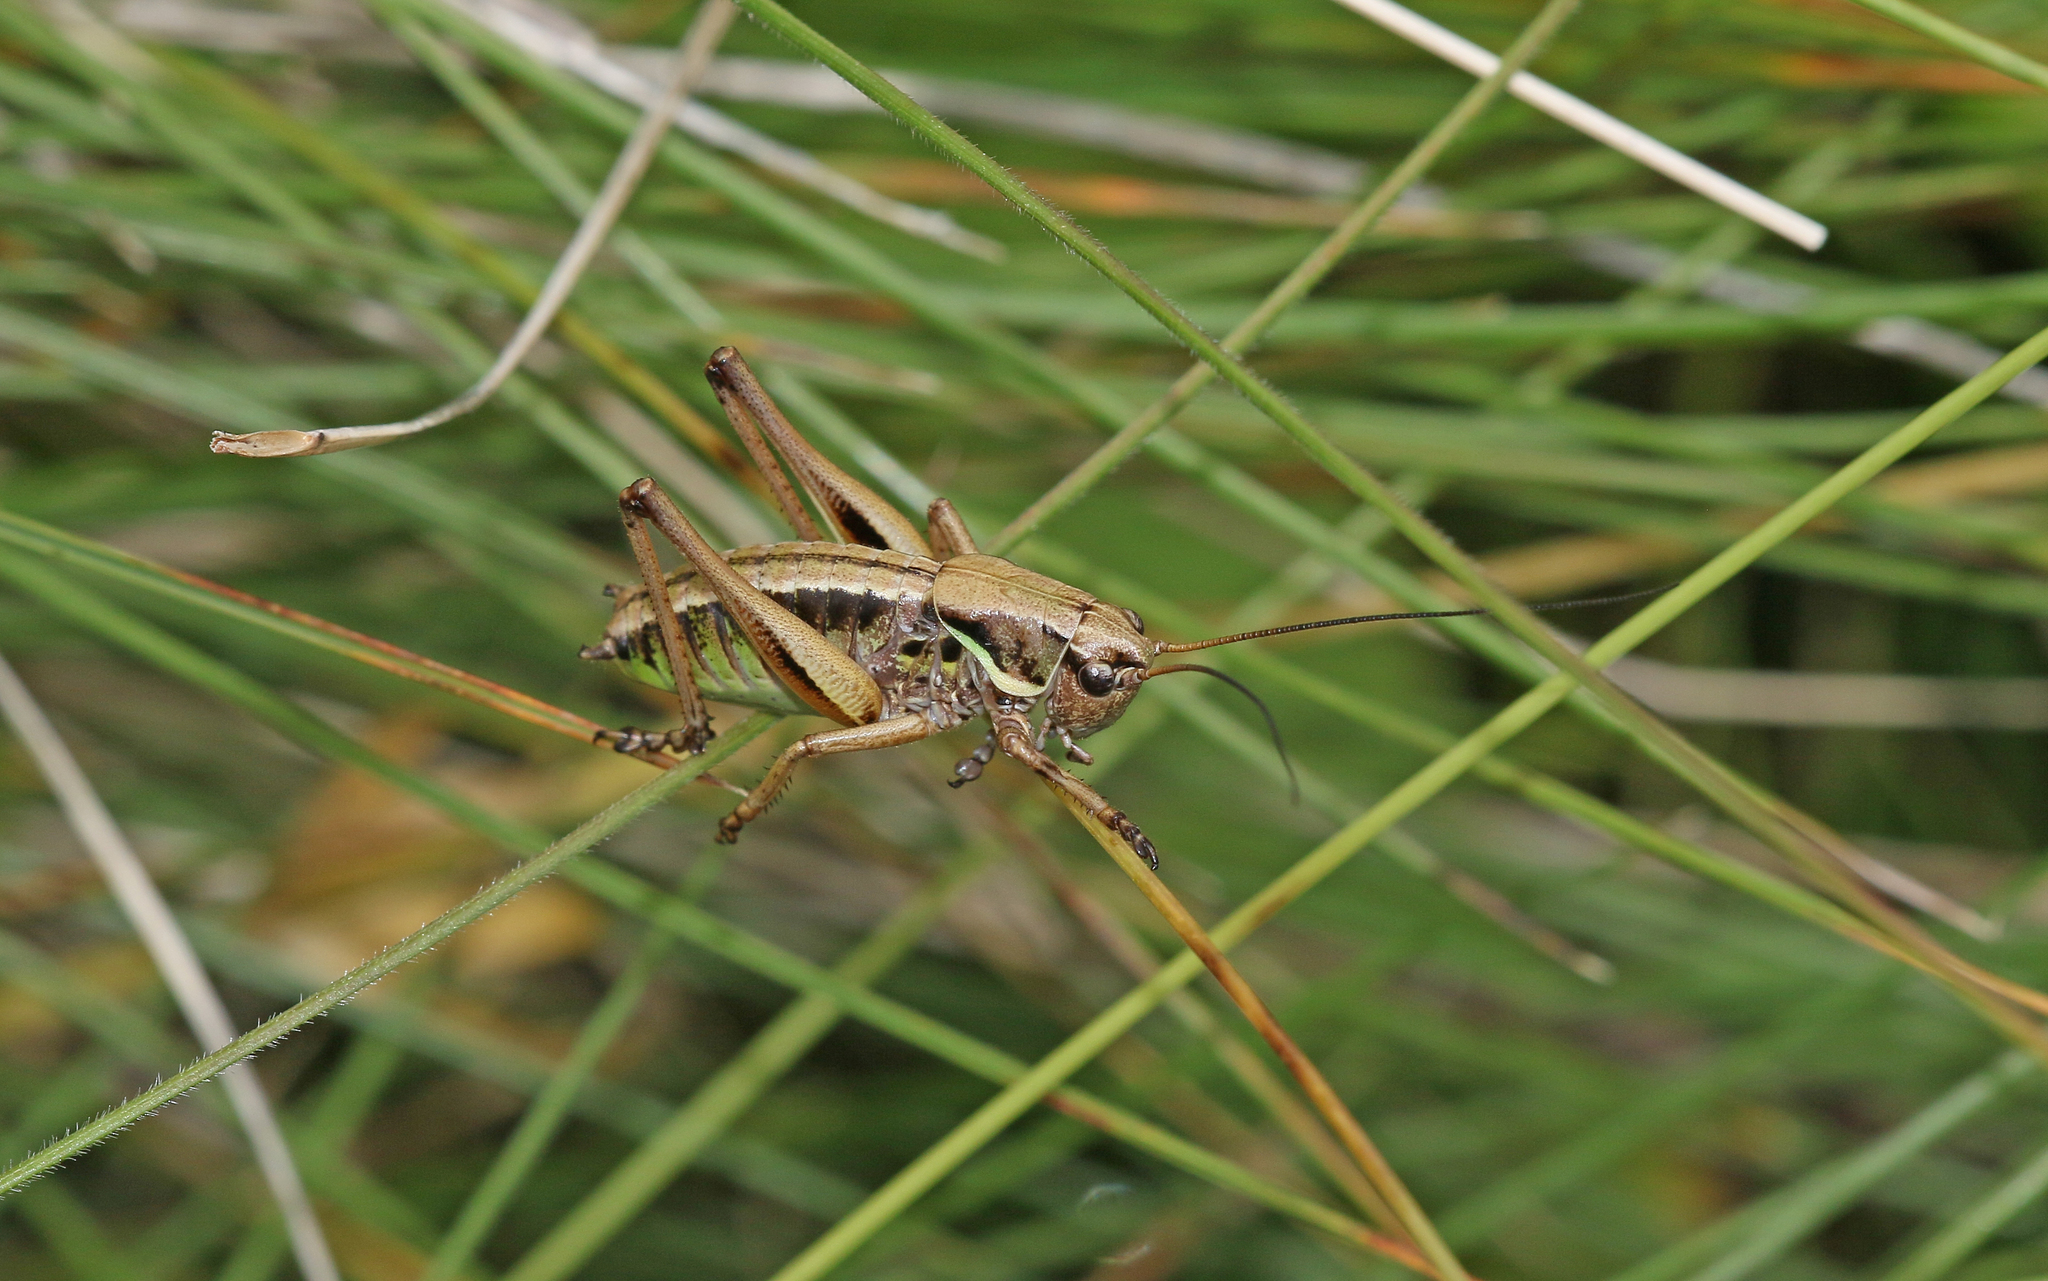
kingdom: Animalia
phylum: Arthropoda
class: Insecta
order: Orthoptera
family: Tettigoniidae
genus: Anonconotus
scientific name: Anonconotus occidentalis
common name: Western alpine bush-cricket
